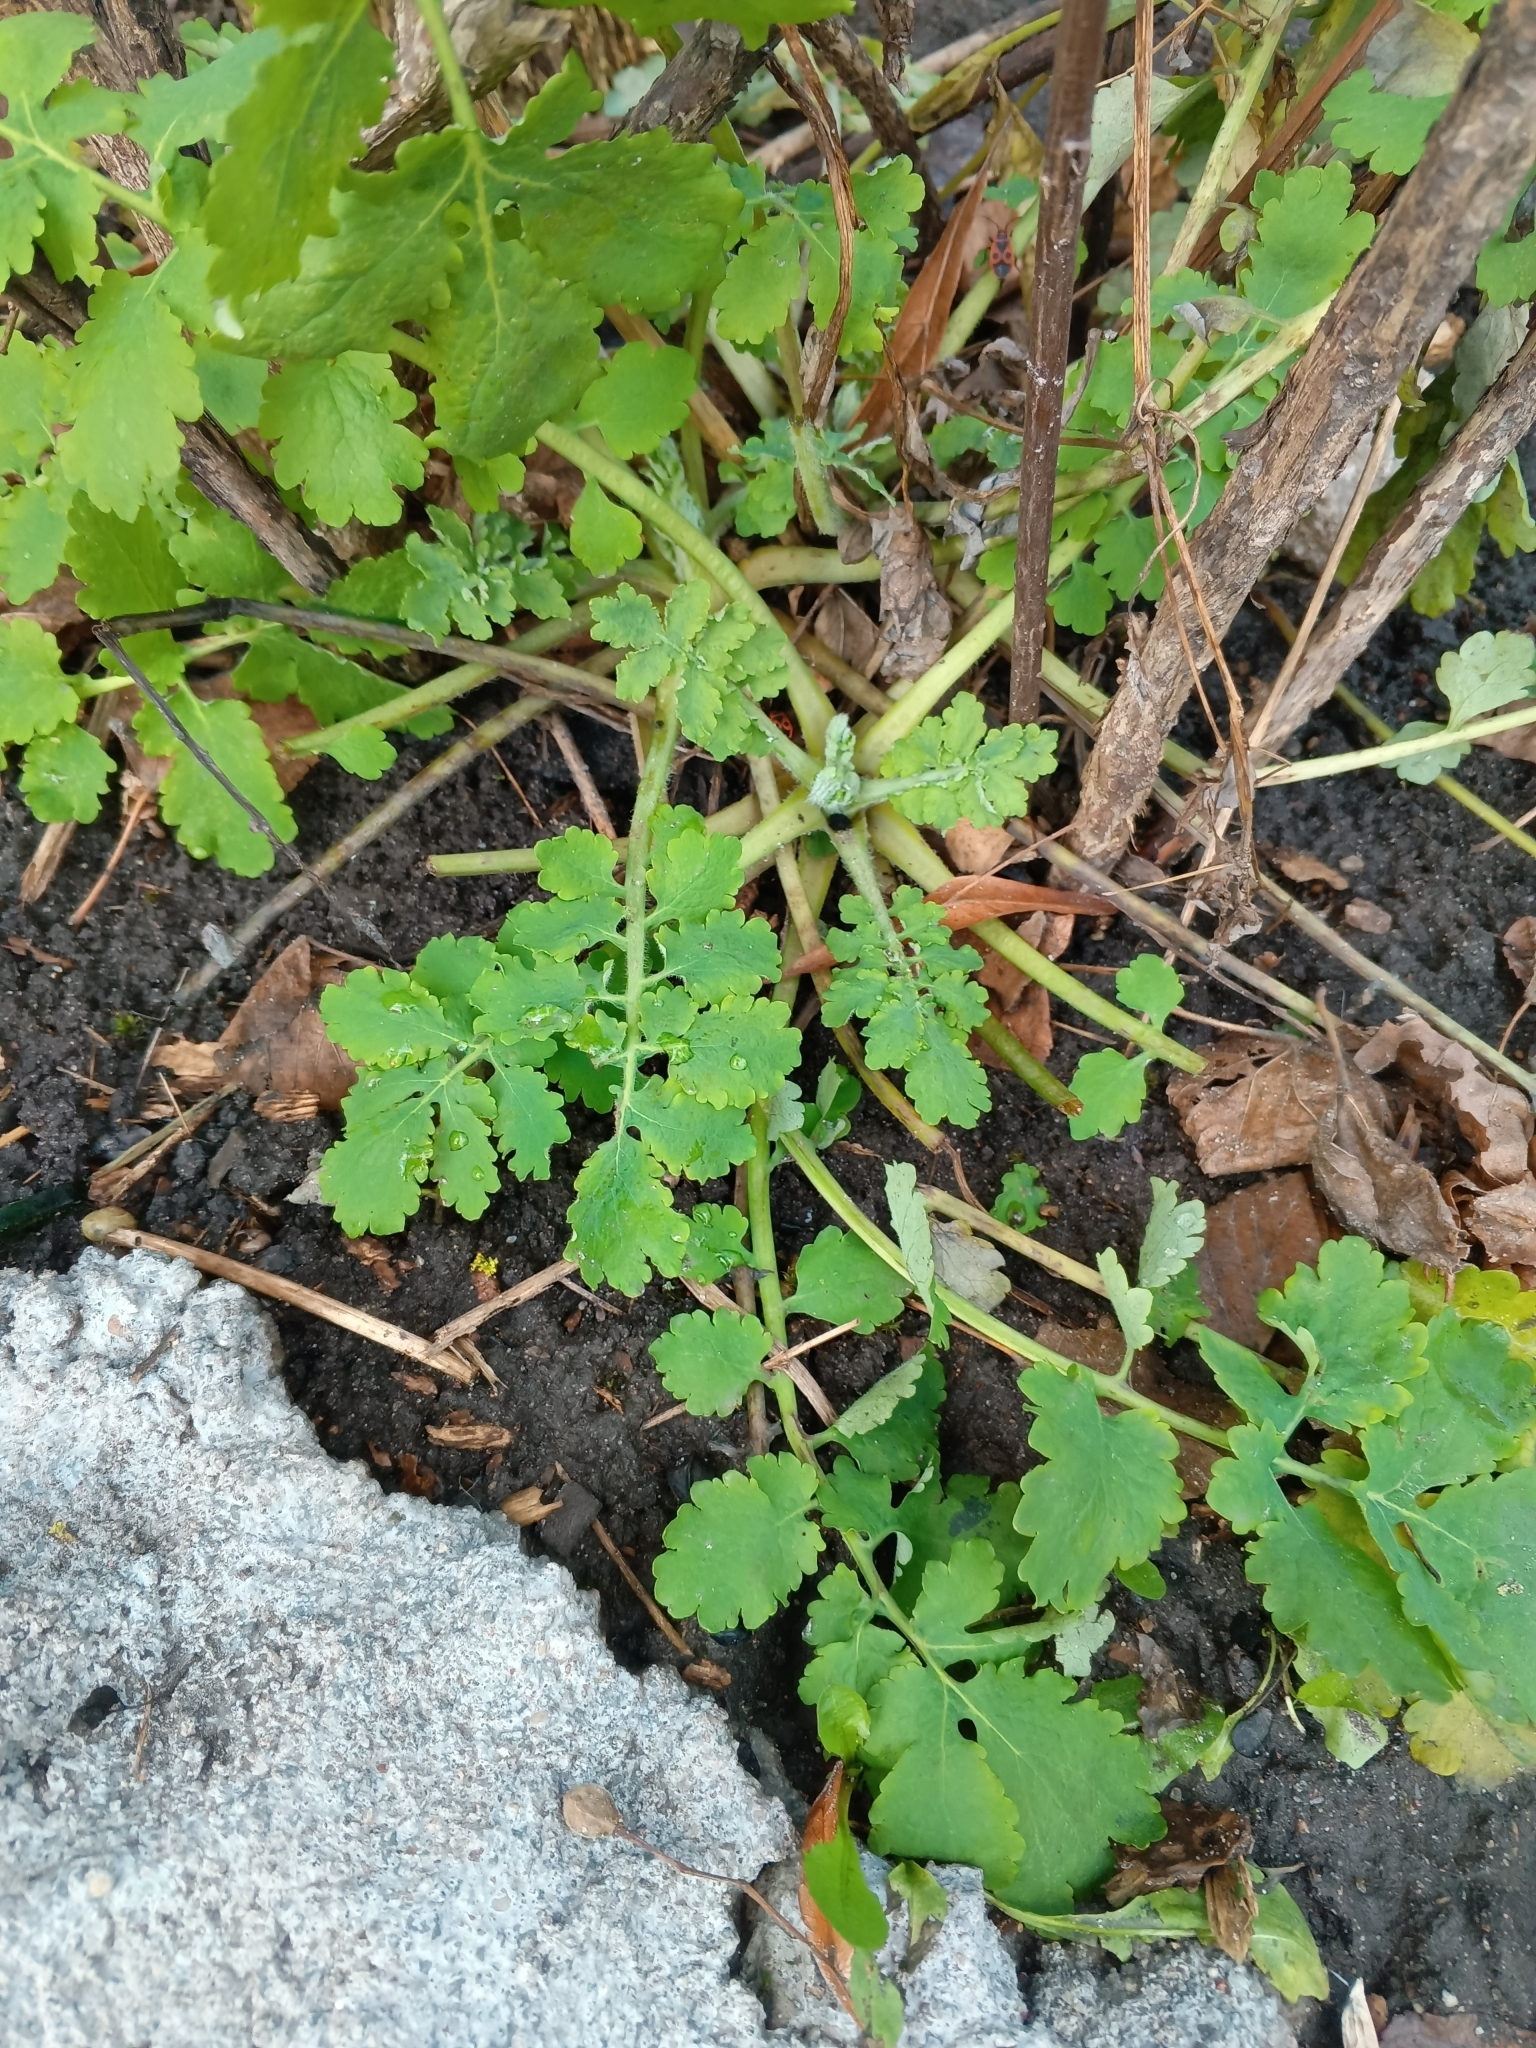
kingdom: Plantae
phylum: Tracheophyta
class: Magnoliopsida
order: Ranunculales
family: Papaveraceae
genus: Chelidonium
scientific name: Chelidonium majus
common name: Greater celandine
